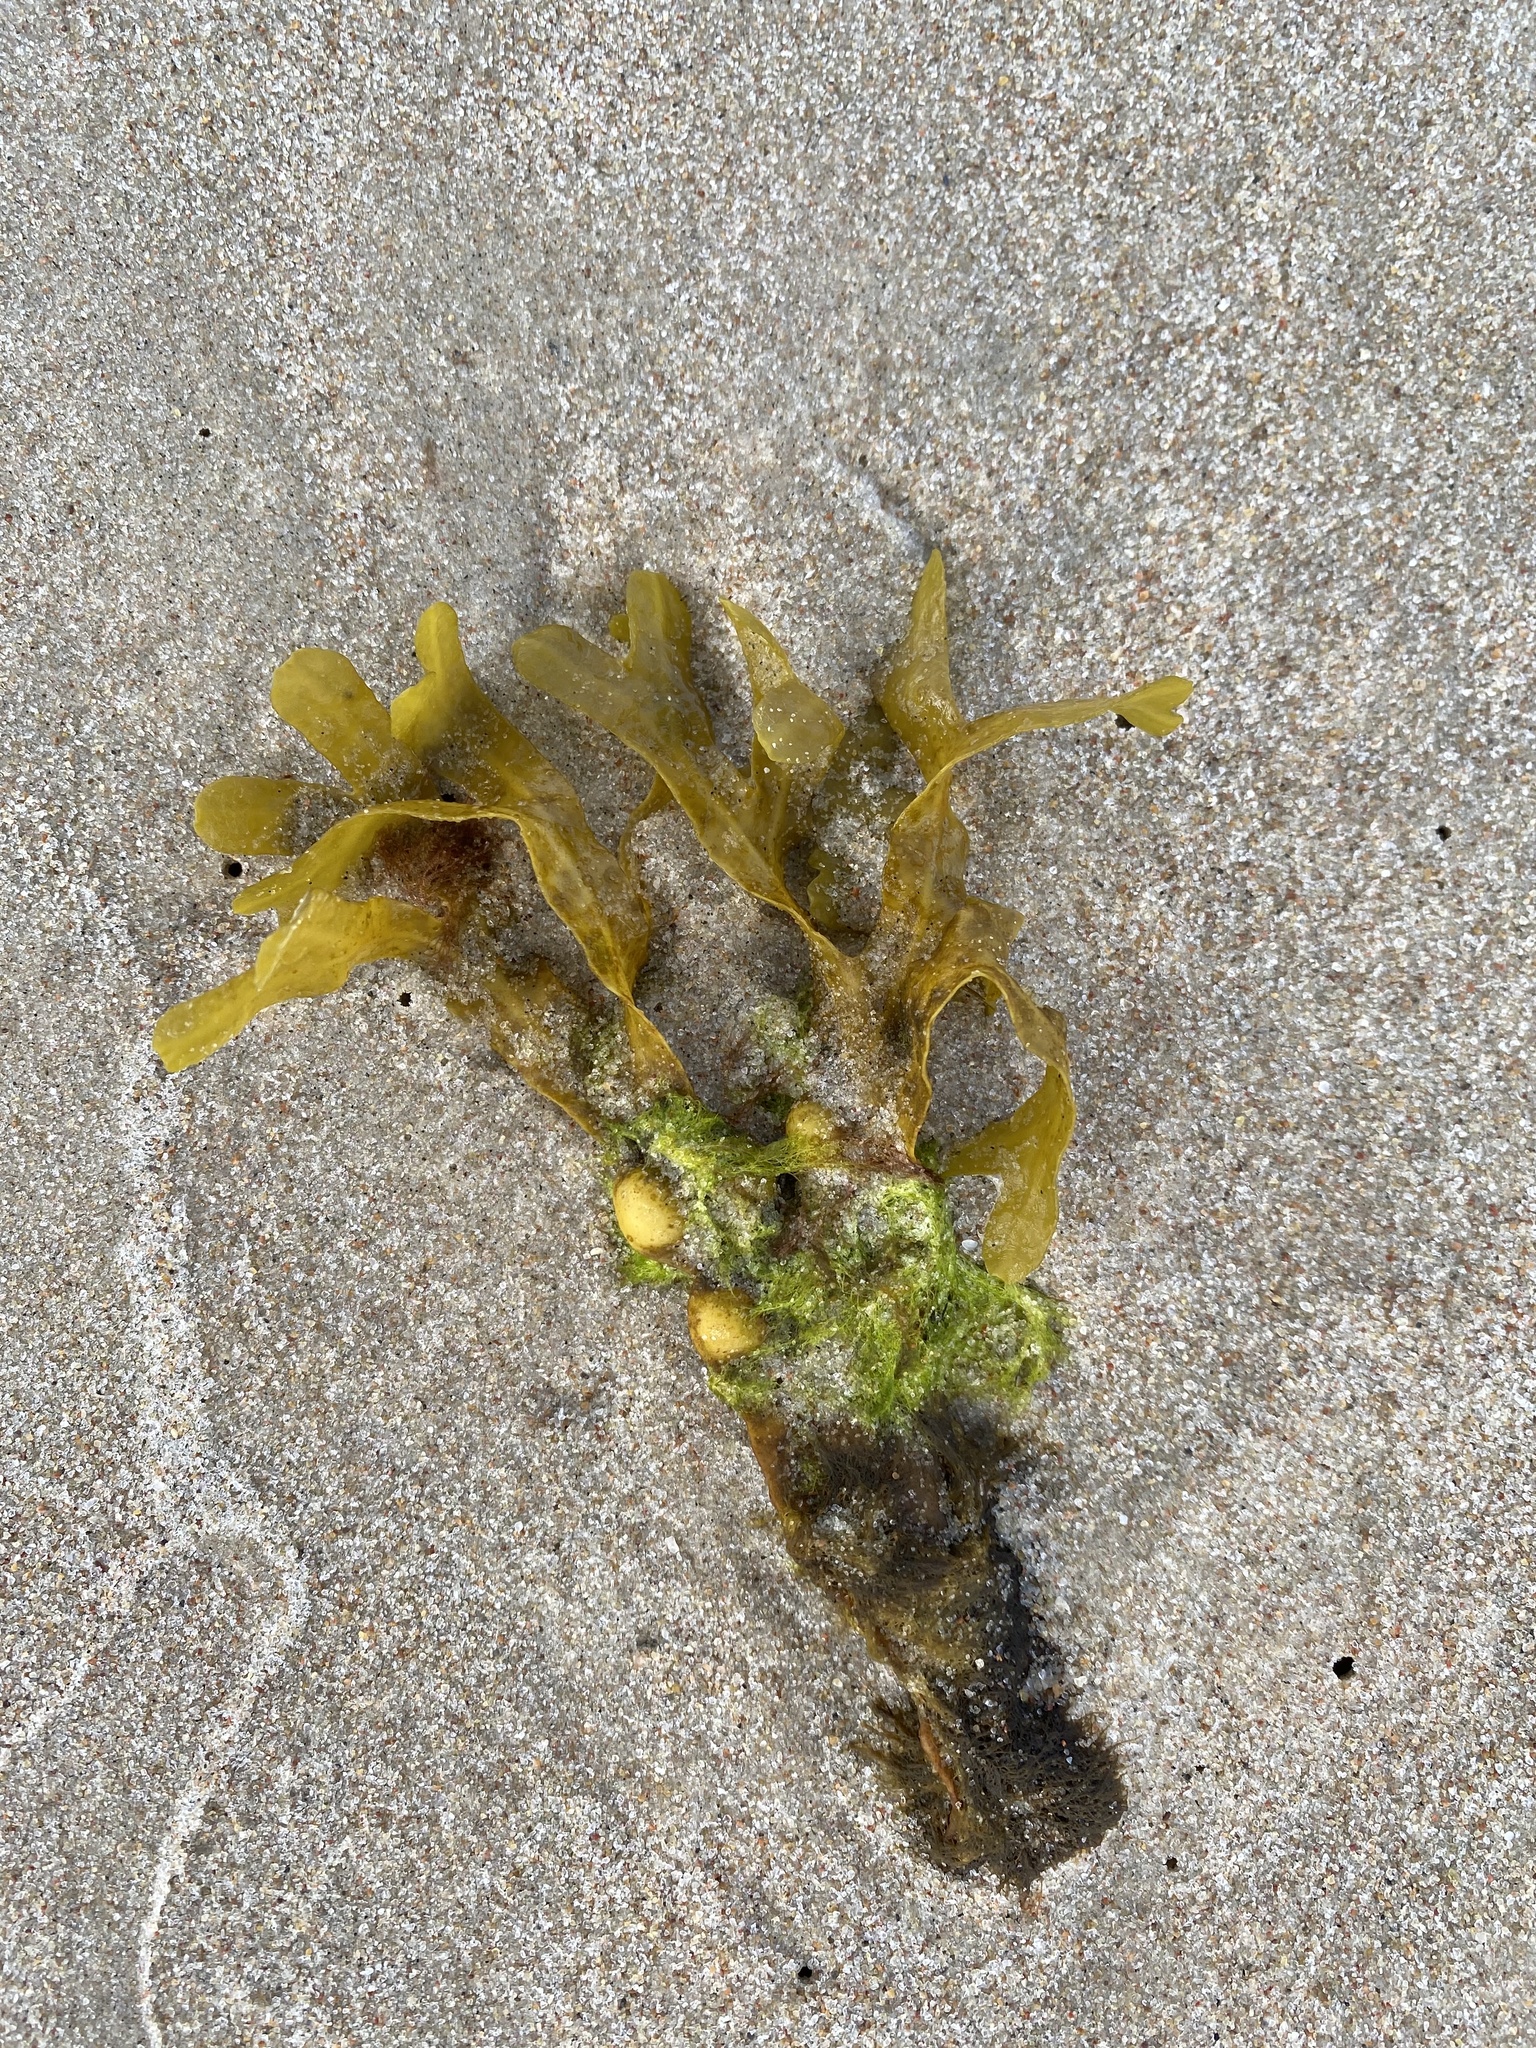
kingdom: Chromista
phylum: Ochrophyta
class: Phaeophyceae
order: Fucales
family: Fucaceae
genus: Fucus
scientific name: Fucus vesiculosus
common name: Bladder wrack
